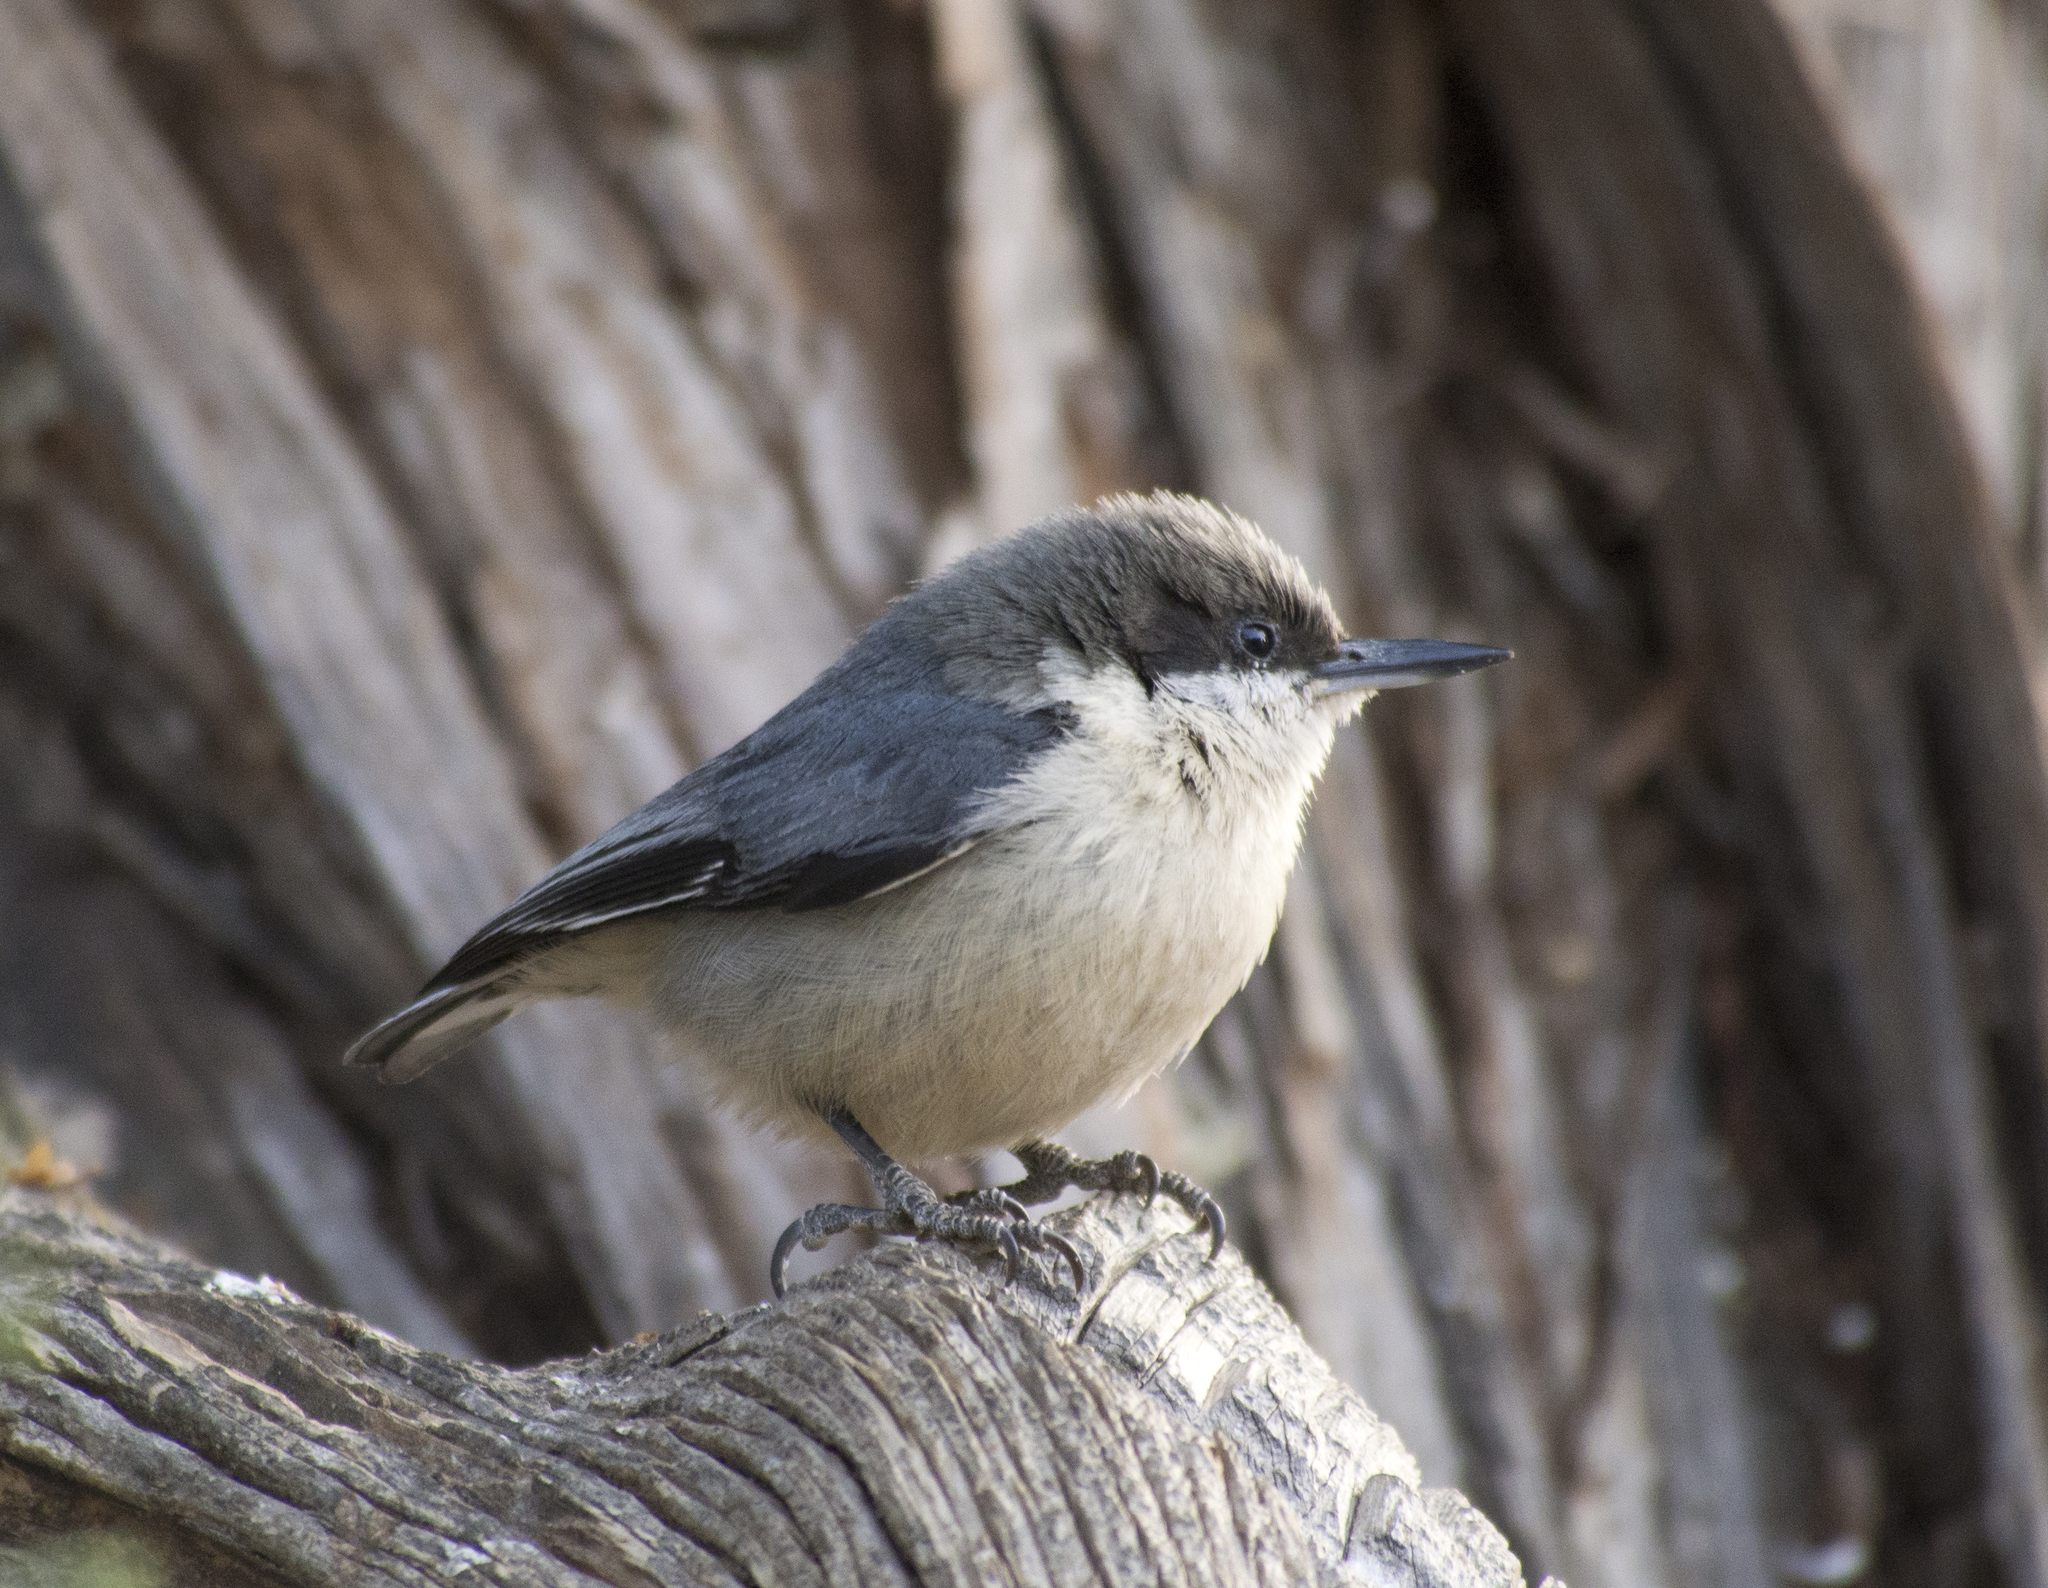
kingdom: Animalia
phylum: Chordata
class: Aves
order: Passeriformes
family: Sittidae
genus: Sitta
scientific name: Sitta pygmaea
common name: Pygmy nuthatch
